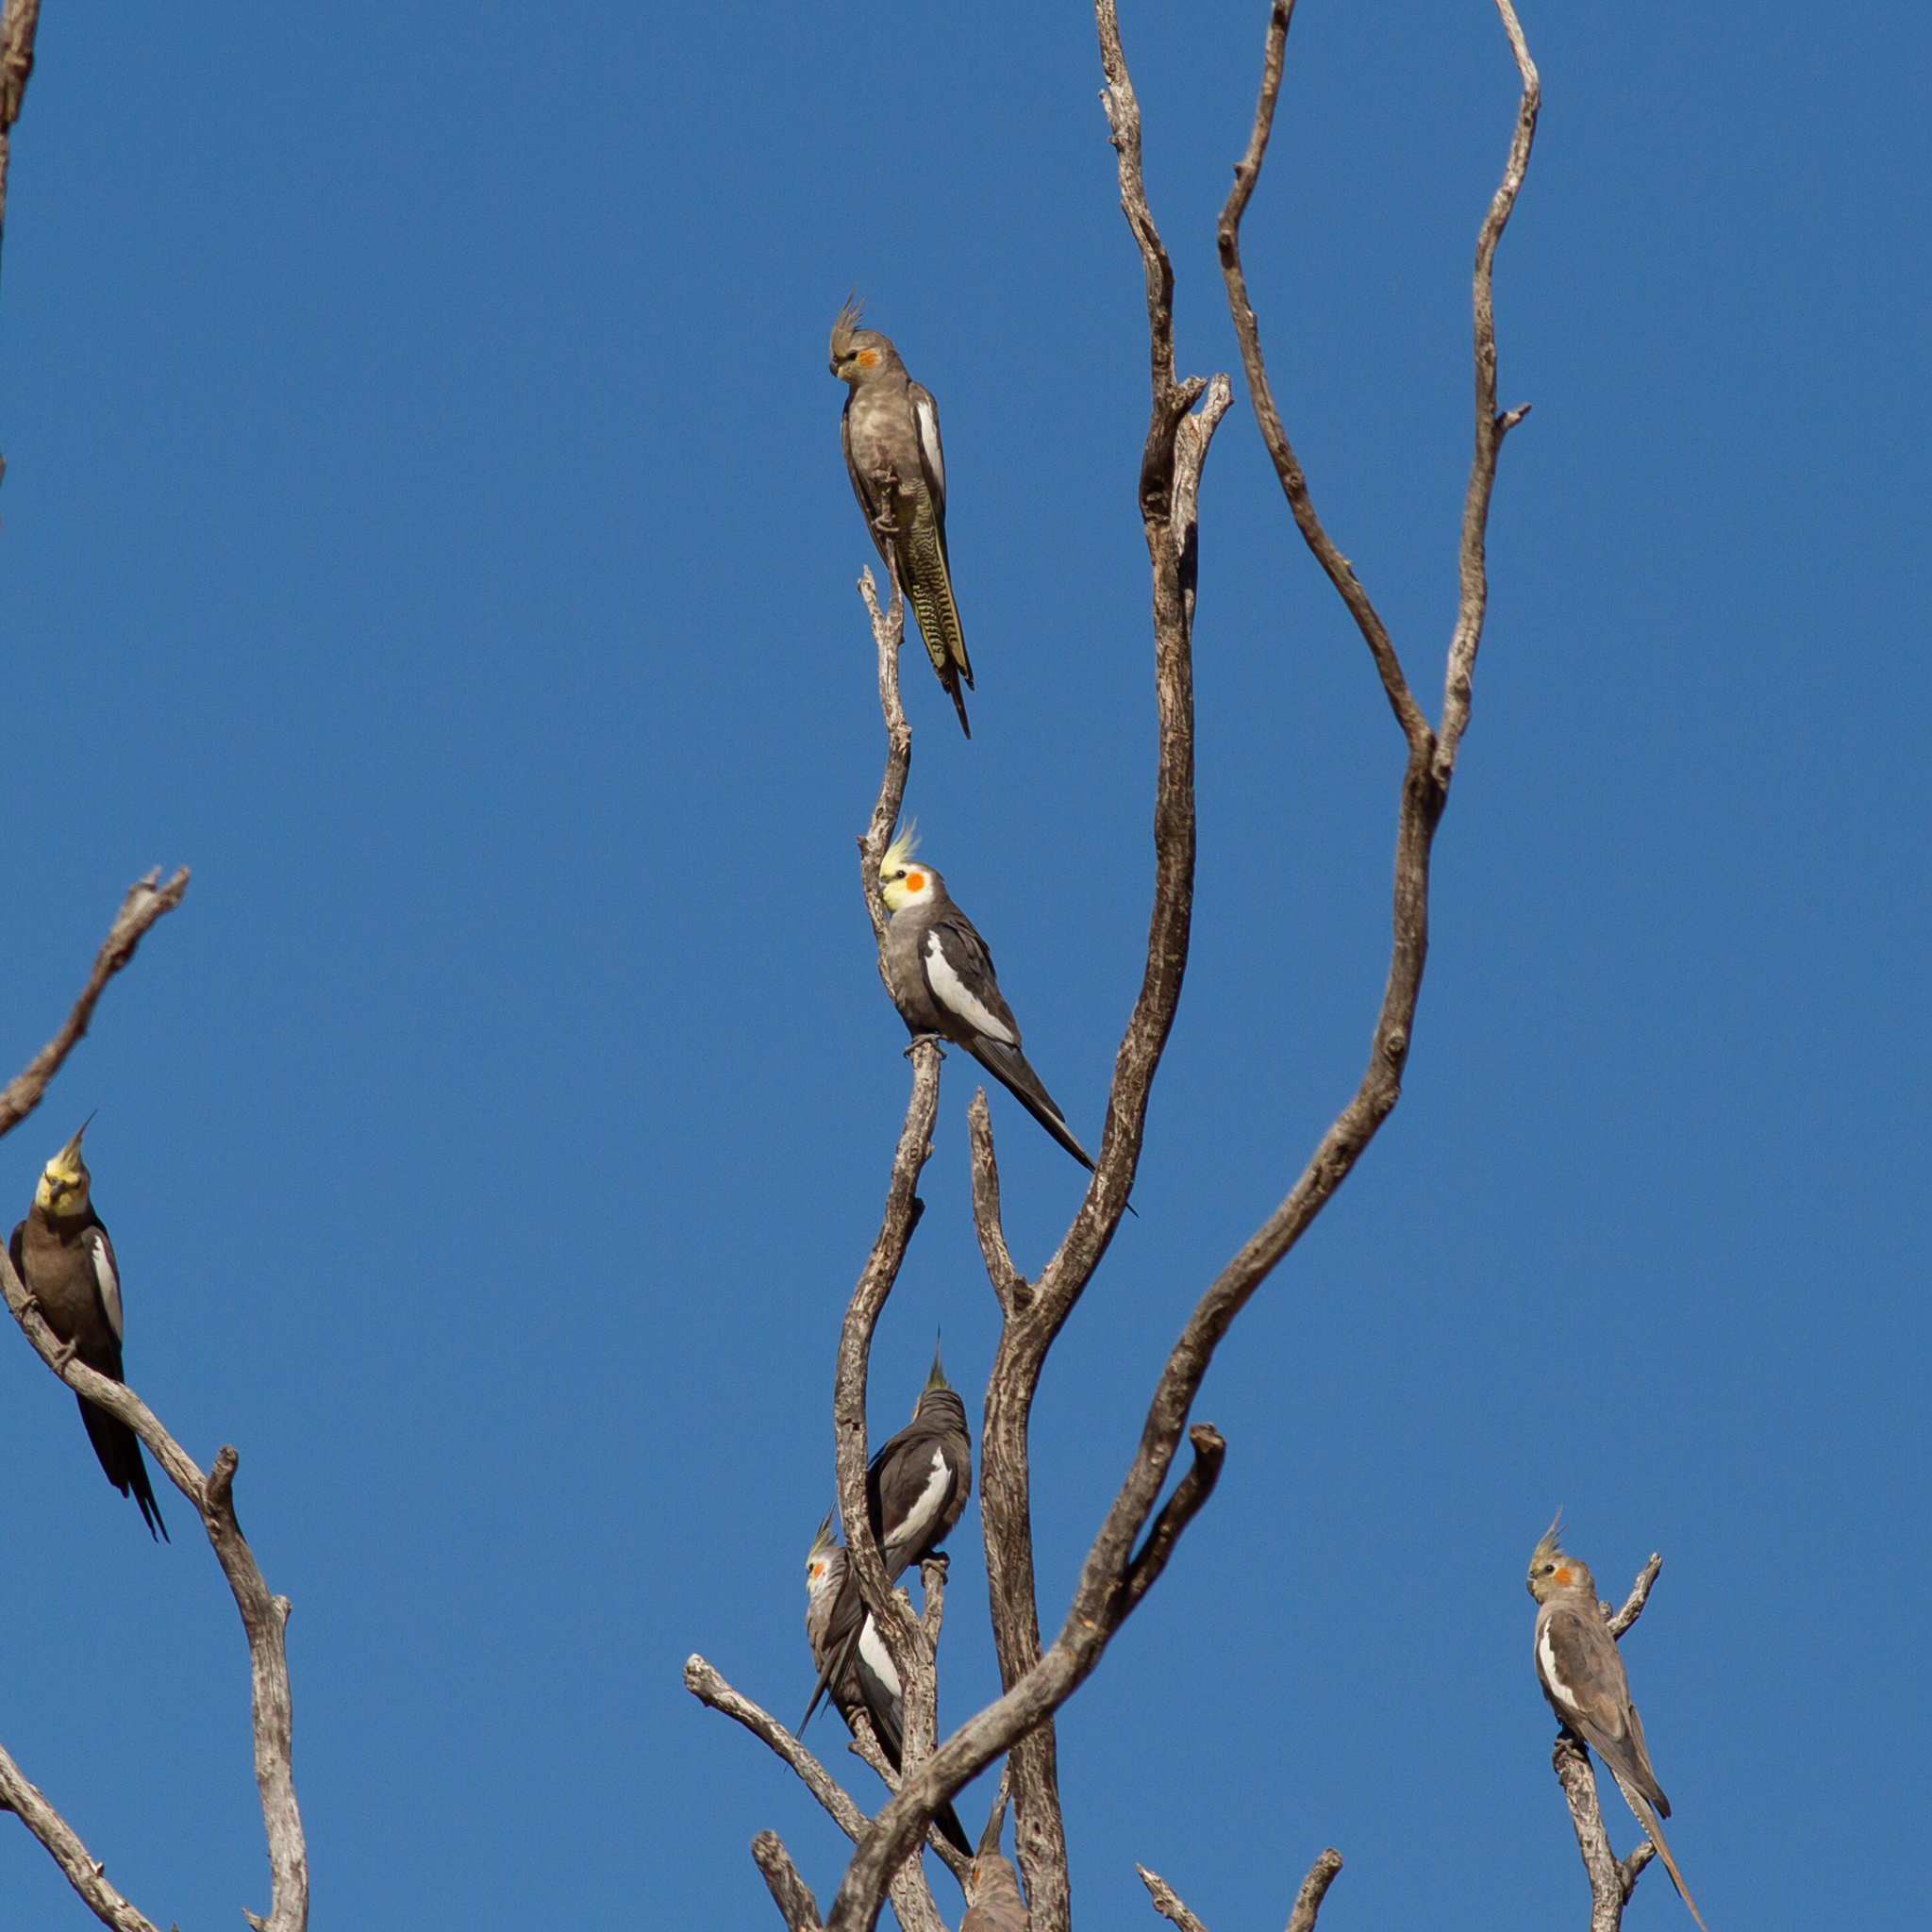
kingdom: Animalia
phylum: Chordata
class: Aves
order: Psittaciformes
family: Psittacidae
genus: Nymphicus
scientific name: Nymphicus hollandicus
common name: Cockatiel
